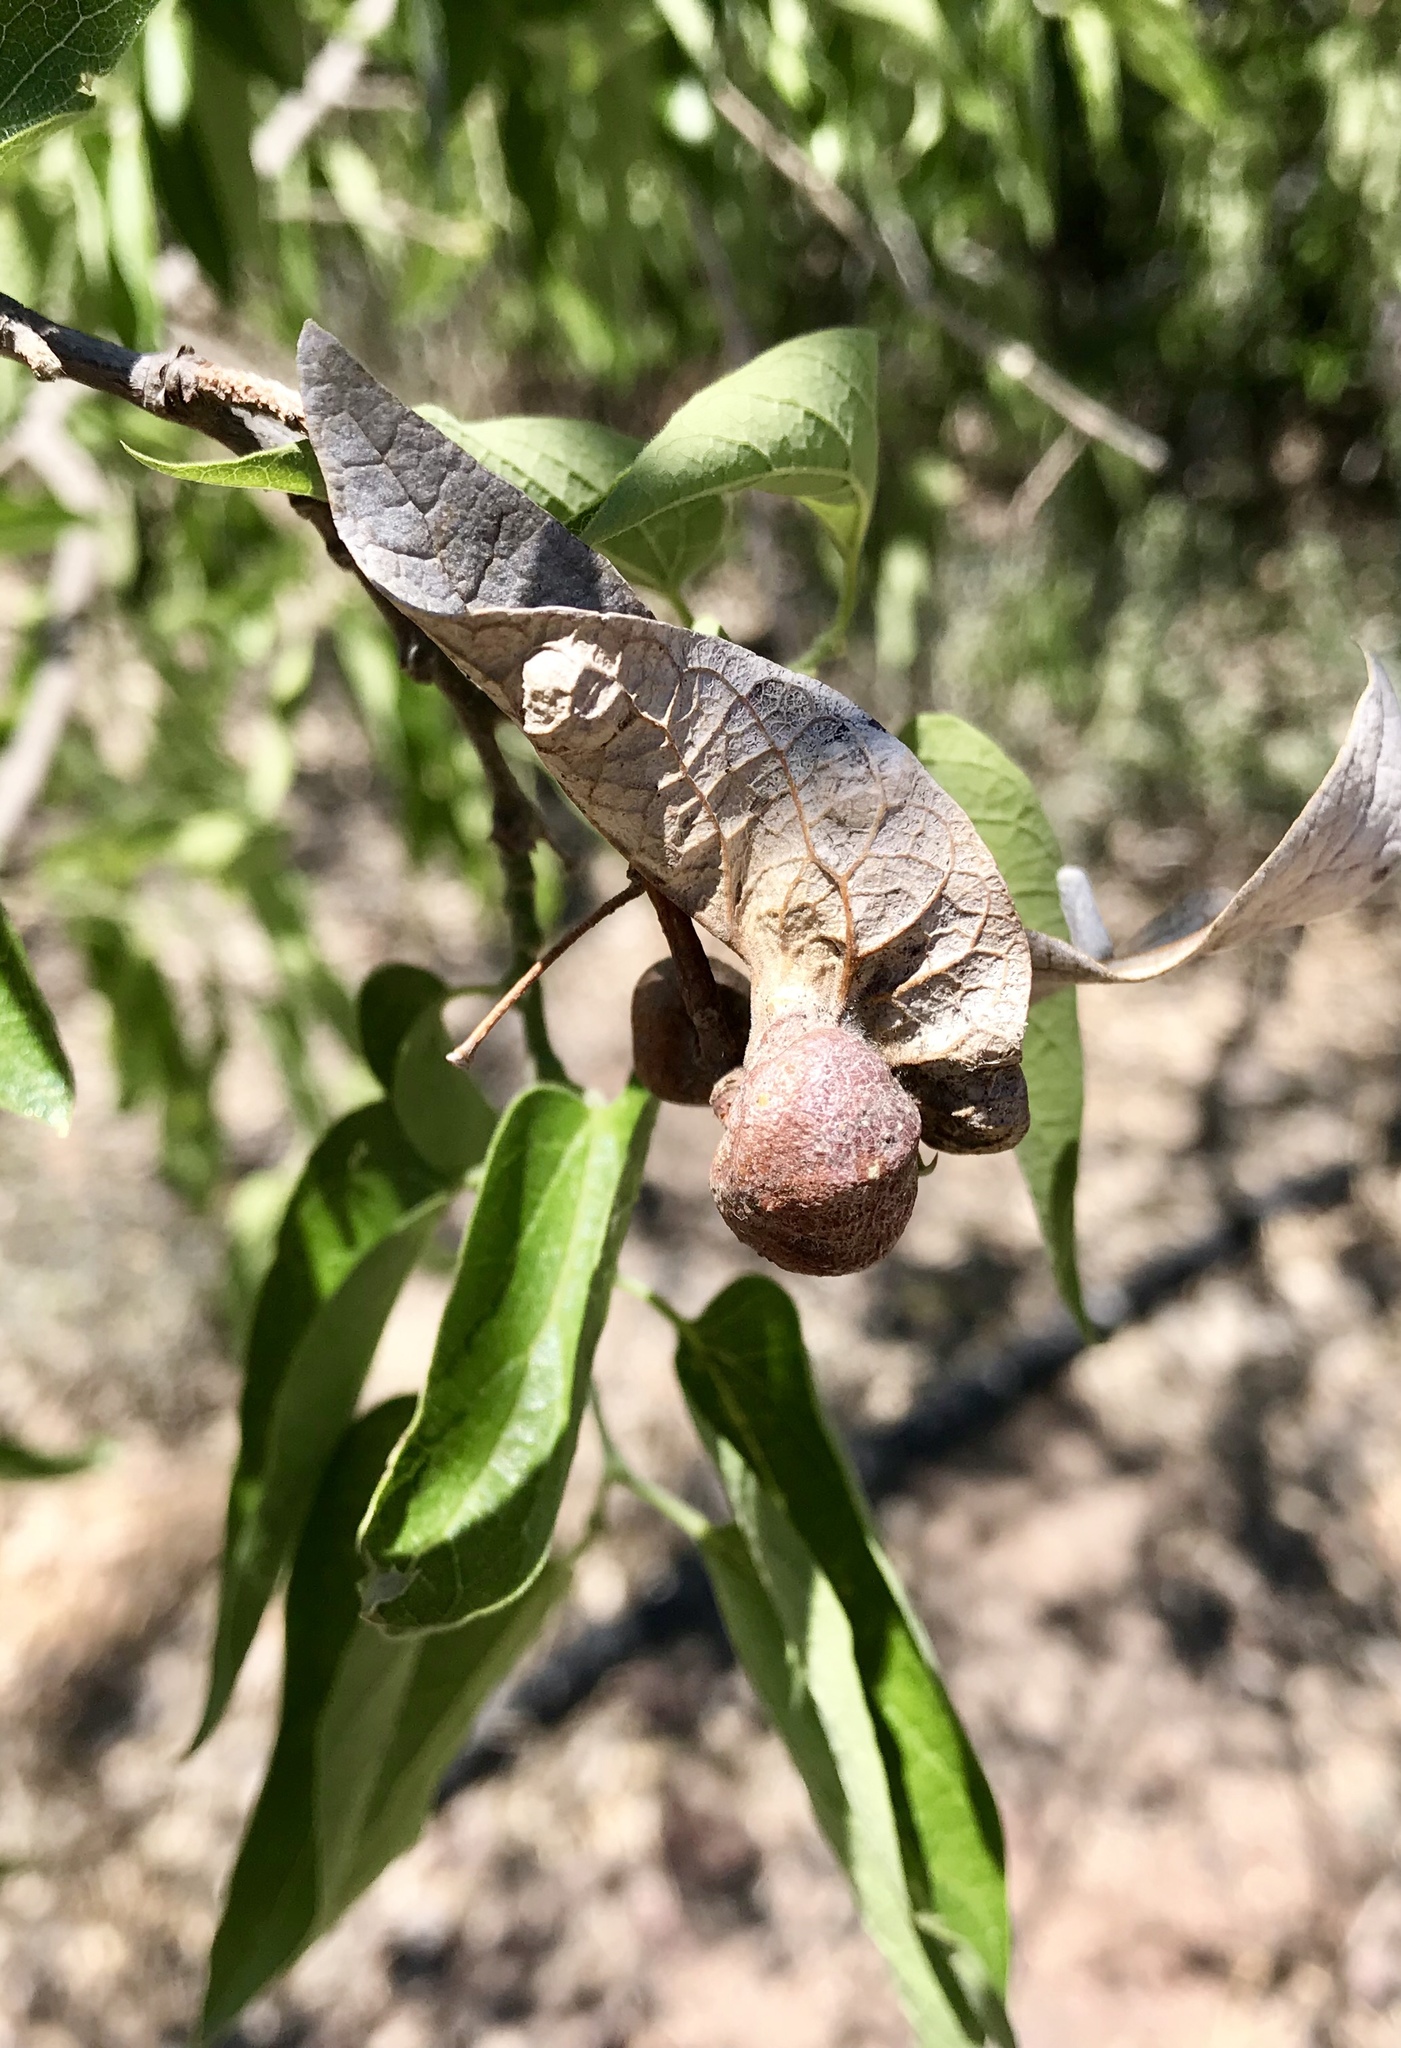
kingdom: Animalia
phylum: Arthropoda
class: Insecta
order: Hemiptera
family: Aphalaridae
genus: Pachypsylla
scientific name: Pachypsylla venusta
